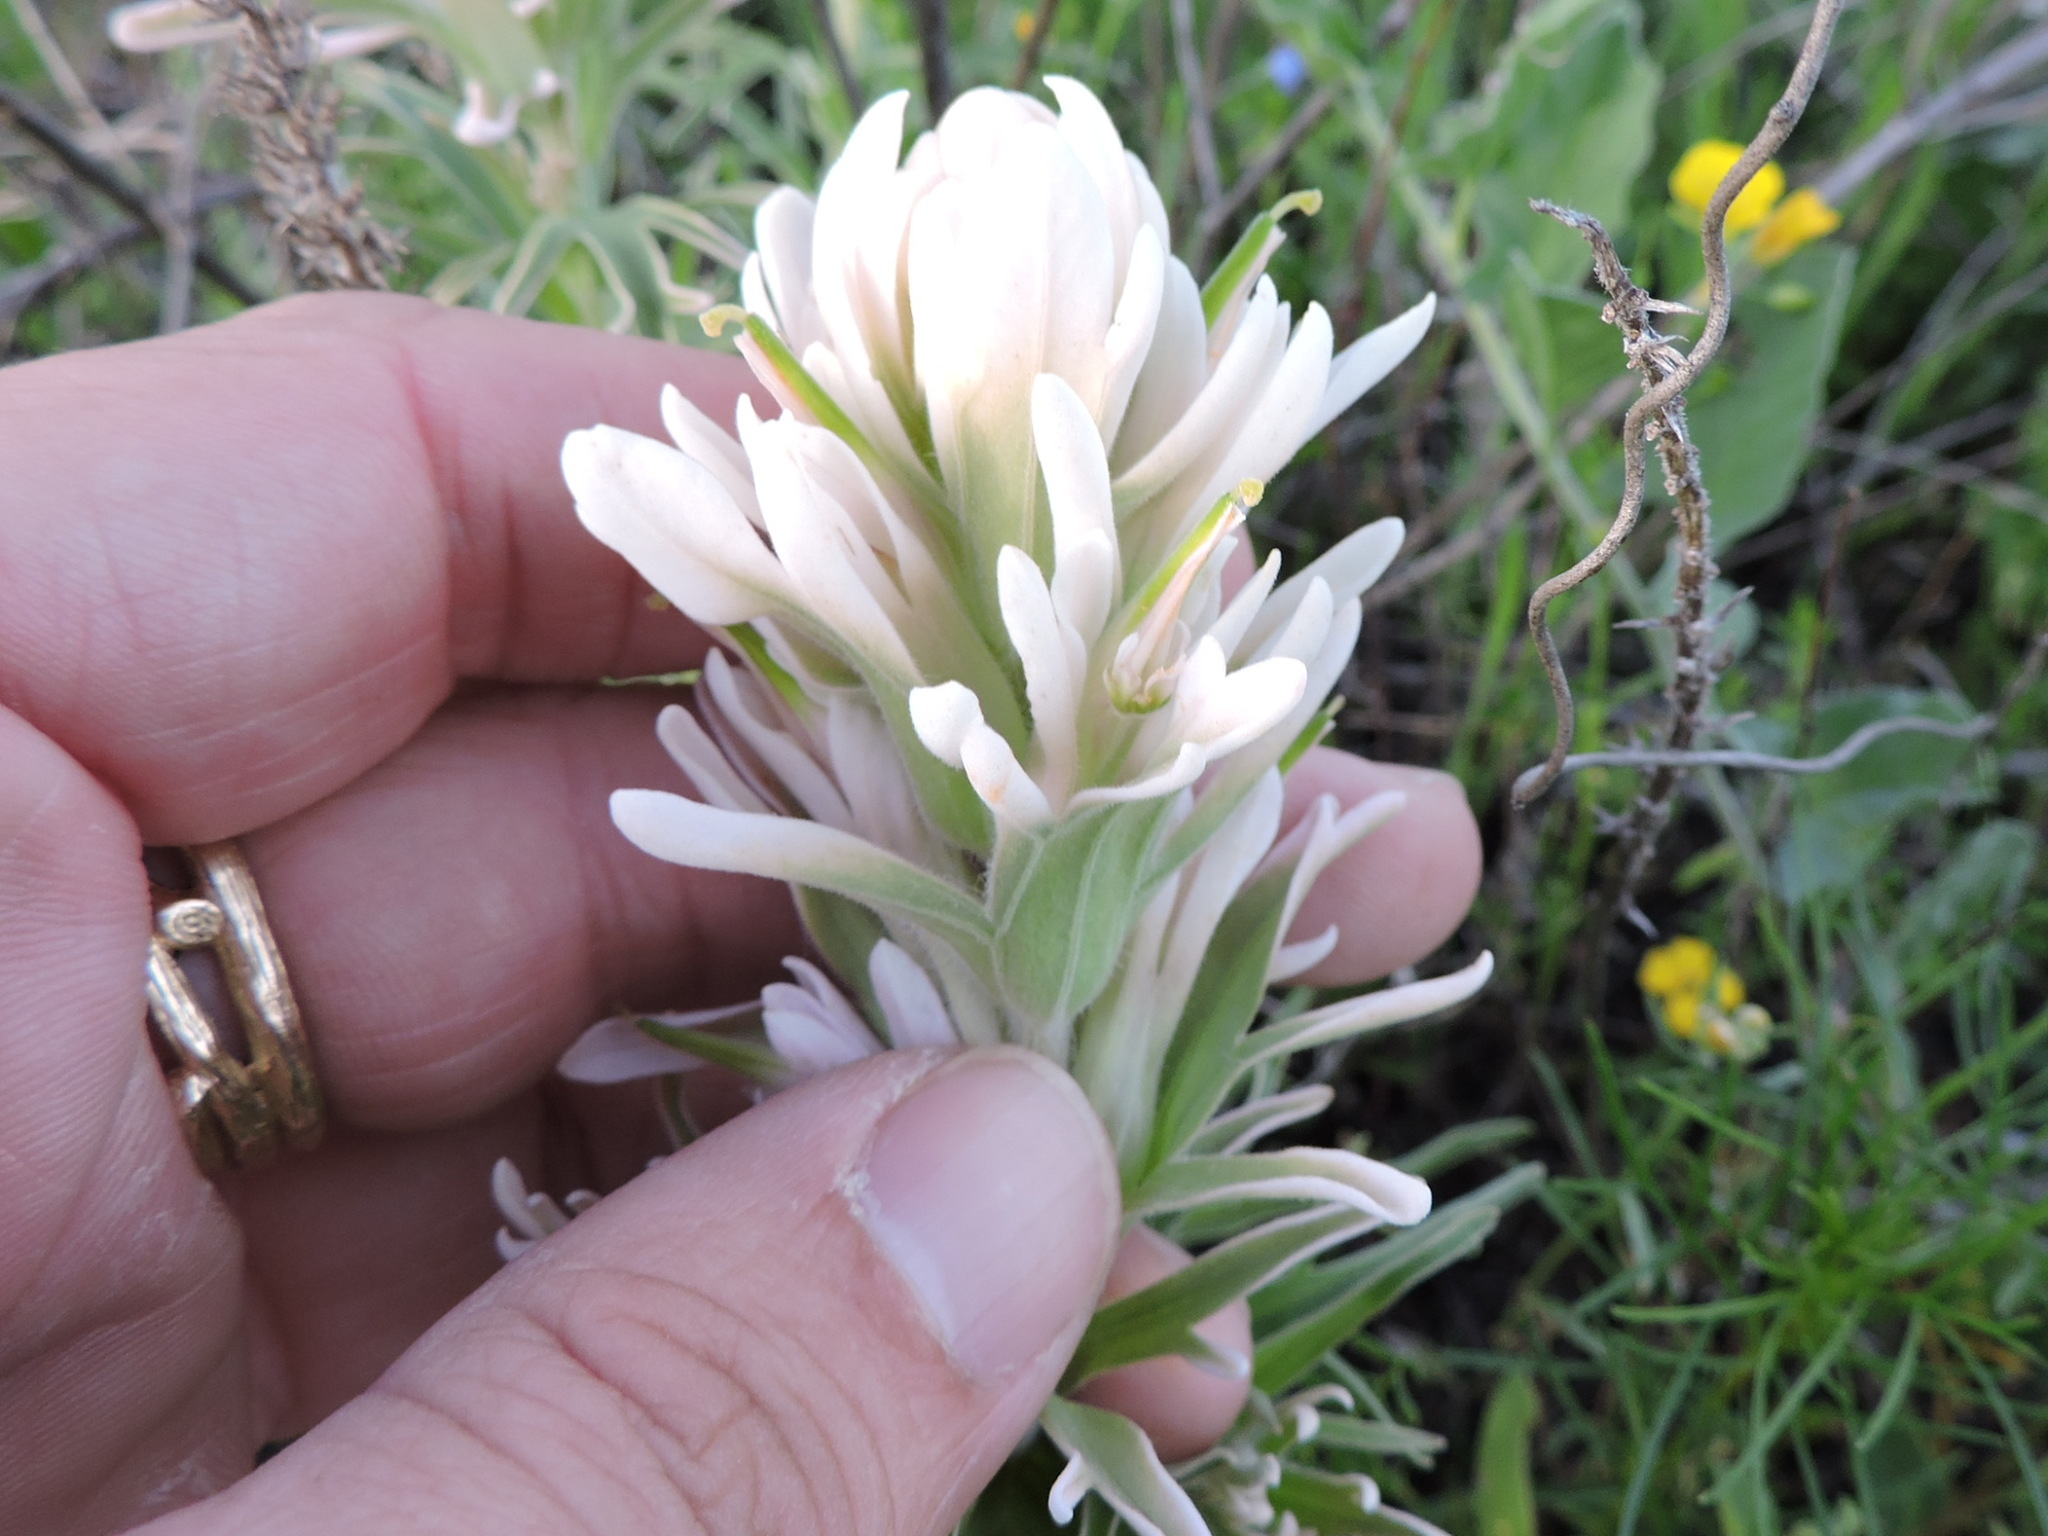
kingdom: Plantae
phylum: Tracheophyta
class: Magnoliopsida
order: Lamiales
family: Orobanchaceae
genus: Castilleja
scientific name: Castilleja purpurea
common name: Plains paintbrush
